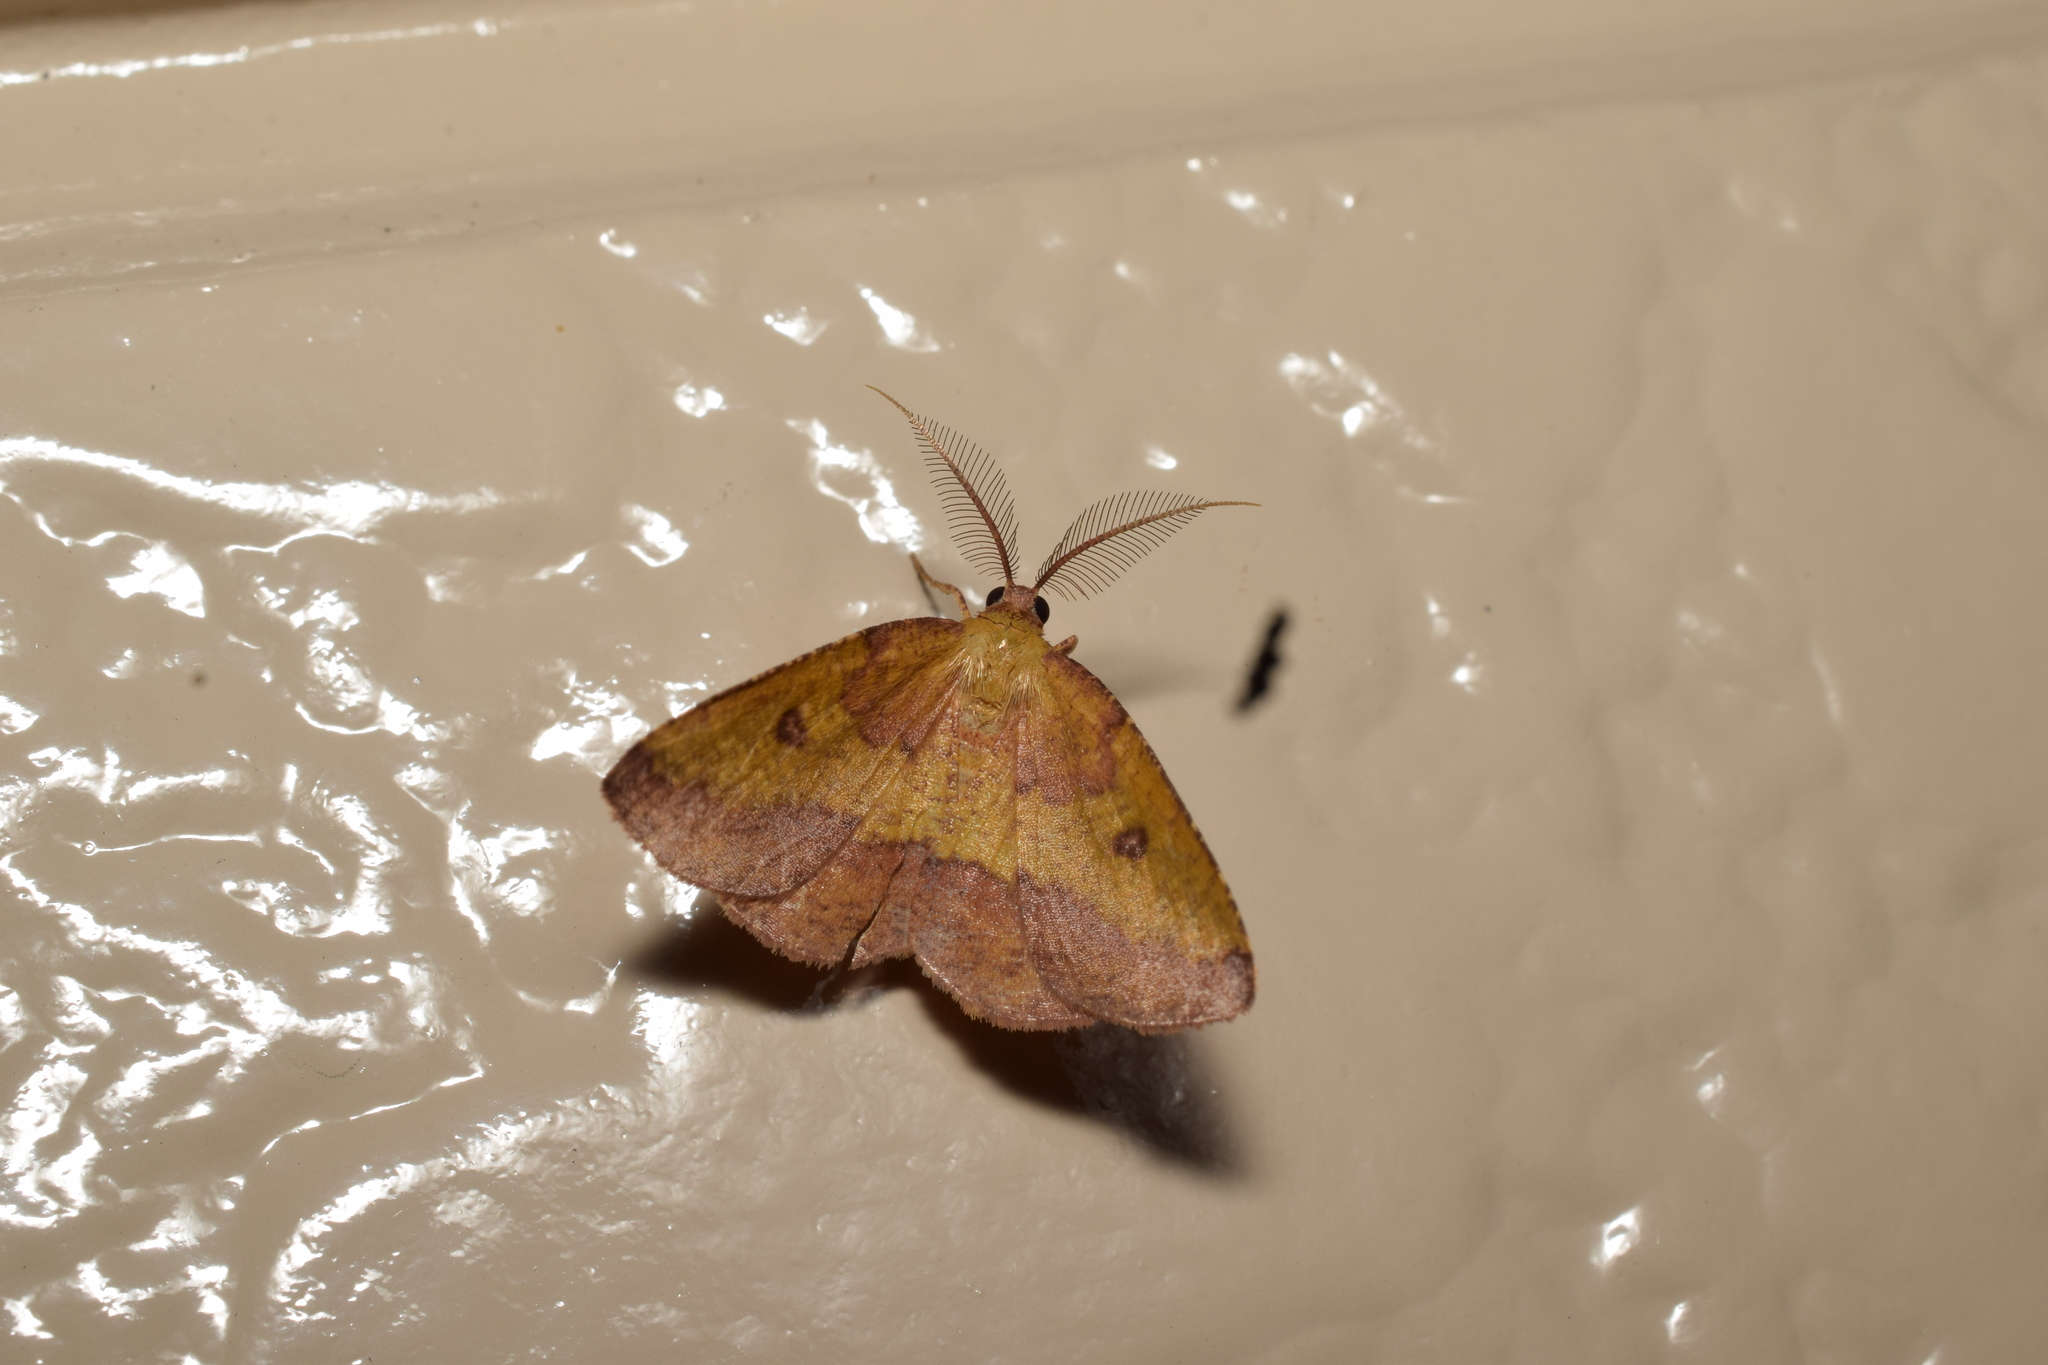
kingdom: Animalia
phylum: Arthropoda
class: Insecta
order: Lepidoptera
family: Geometridae
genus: Heterolocha
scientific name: Heterolocha aristonaria
